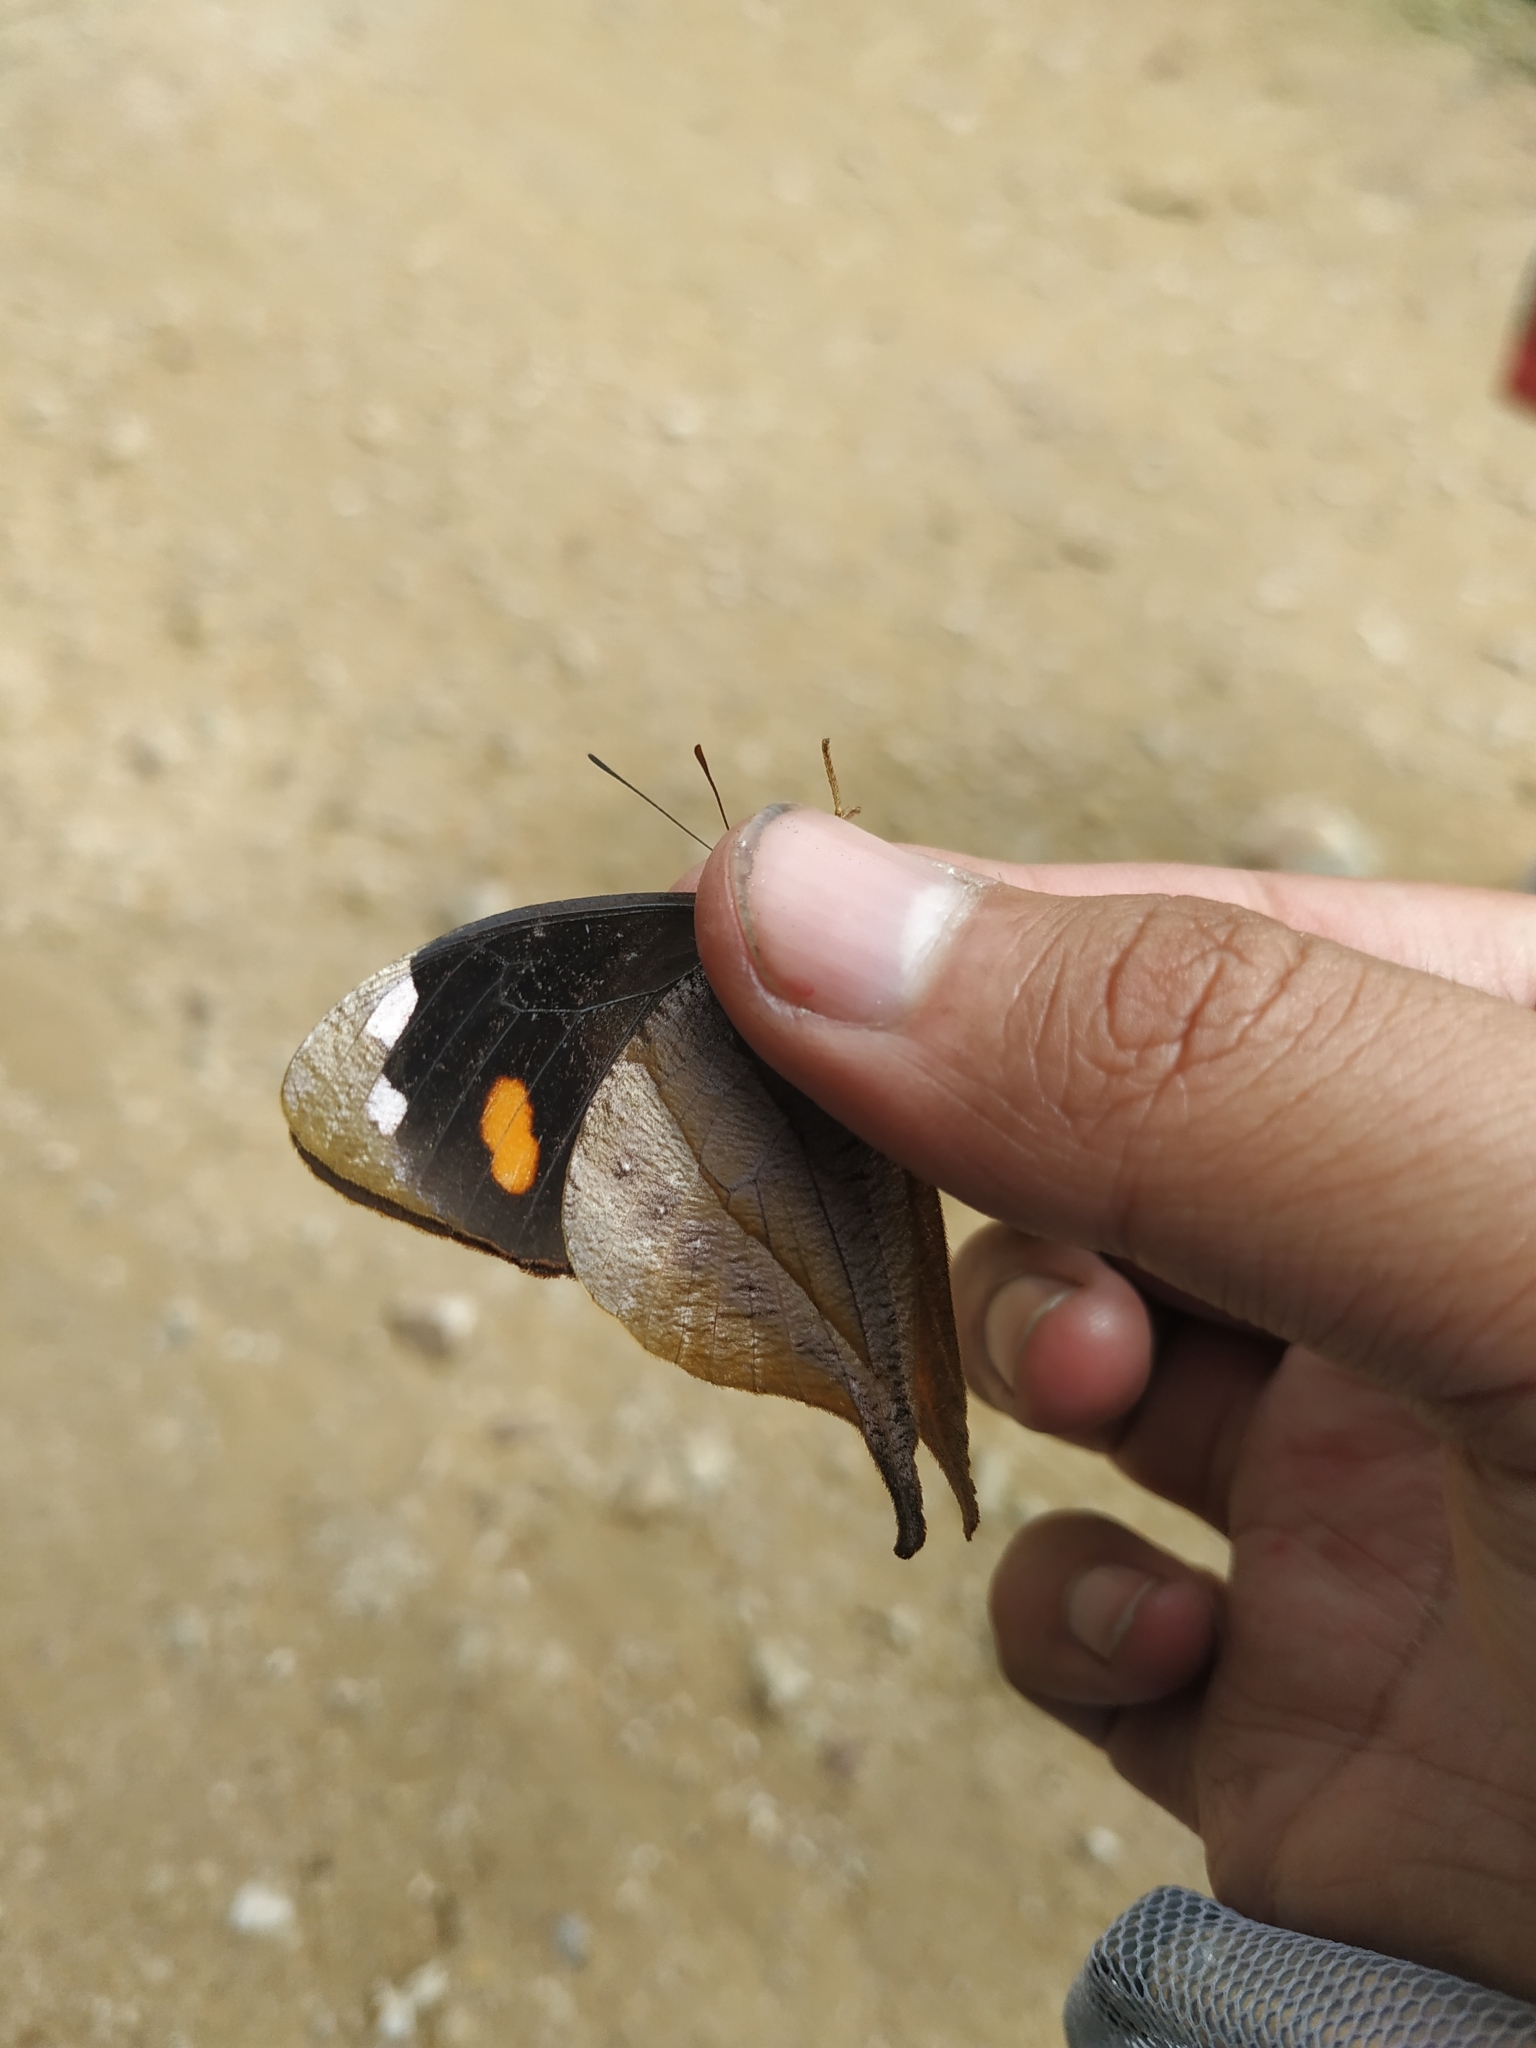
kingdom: Animalia
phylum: Arthropoda
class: Insecta
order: Lepidoptera
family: Nymphalidae
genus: Corades
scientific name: Corades chelonis
